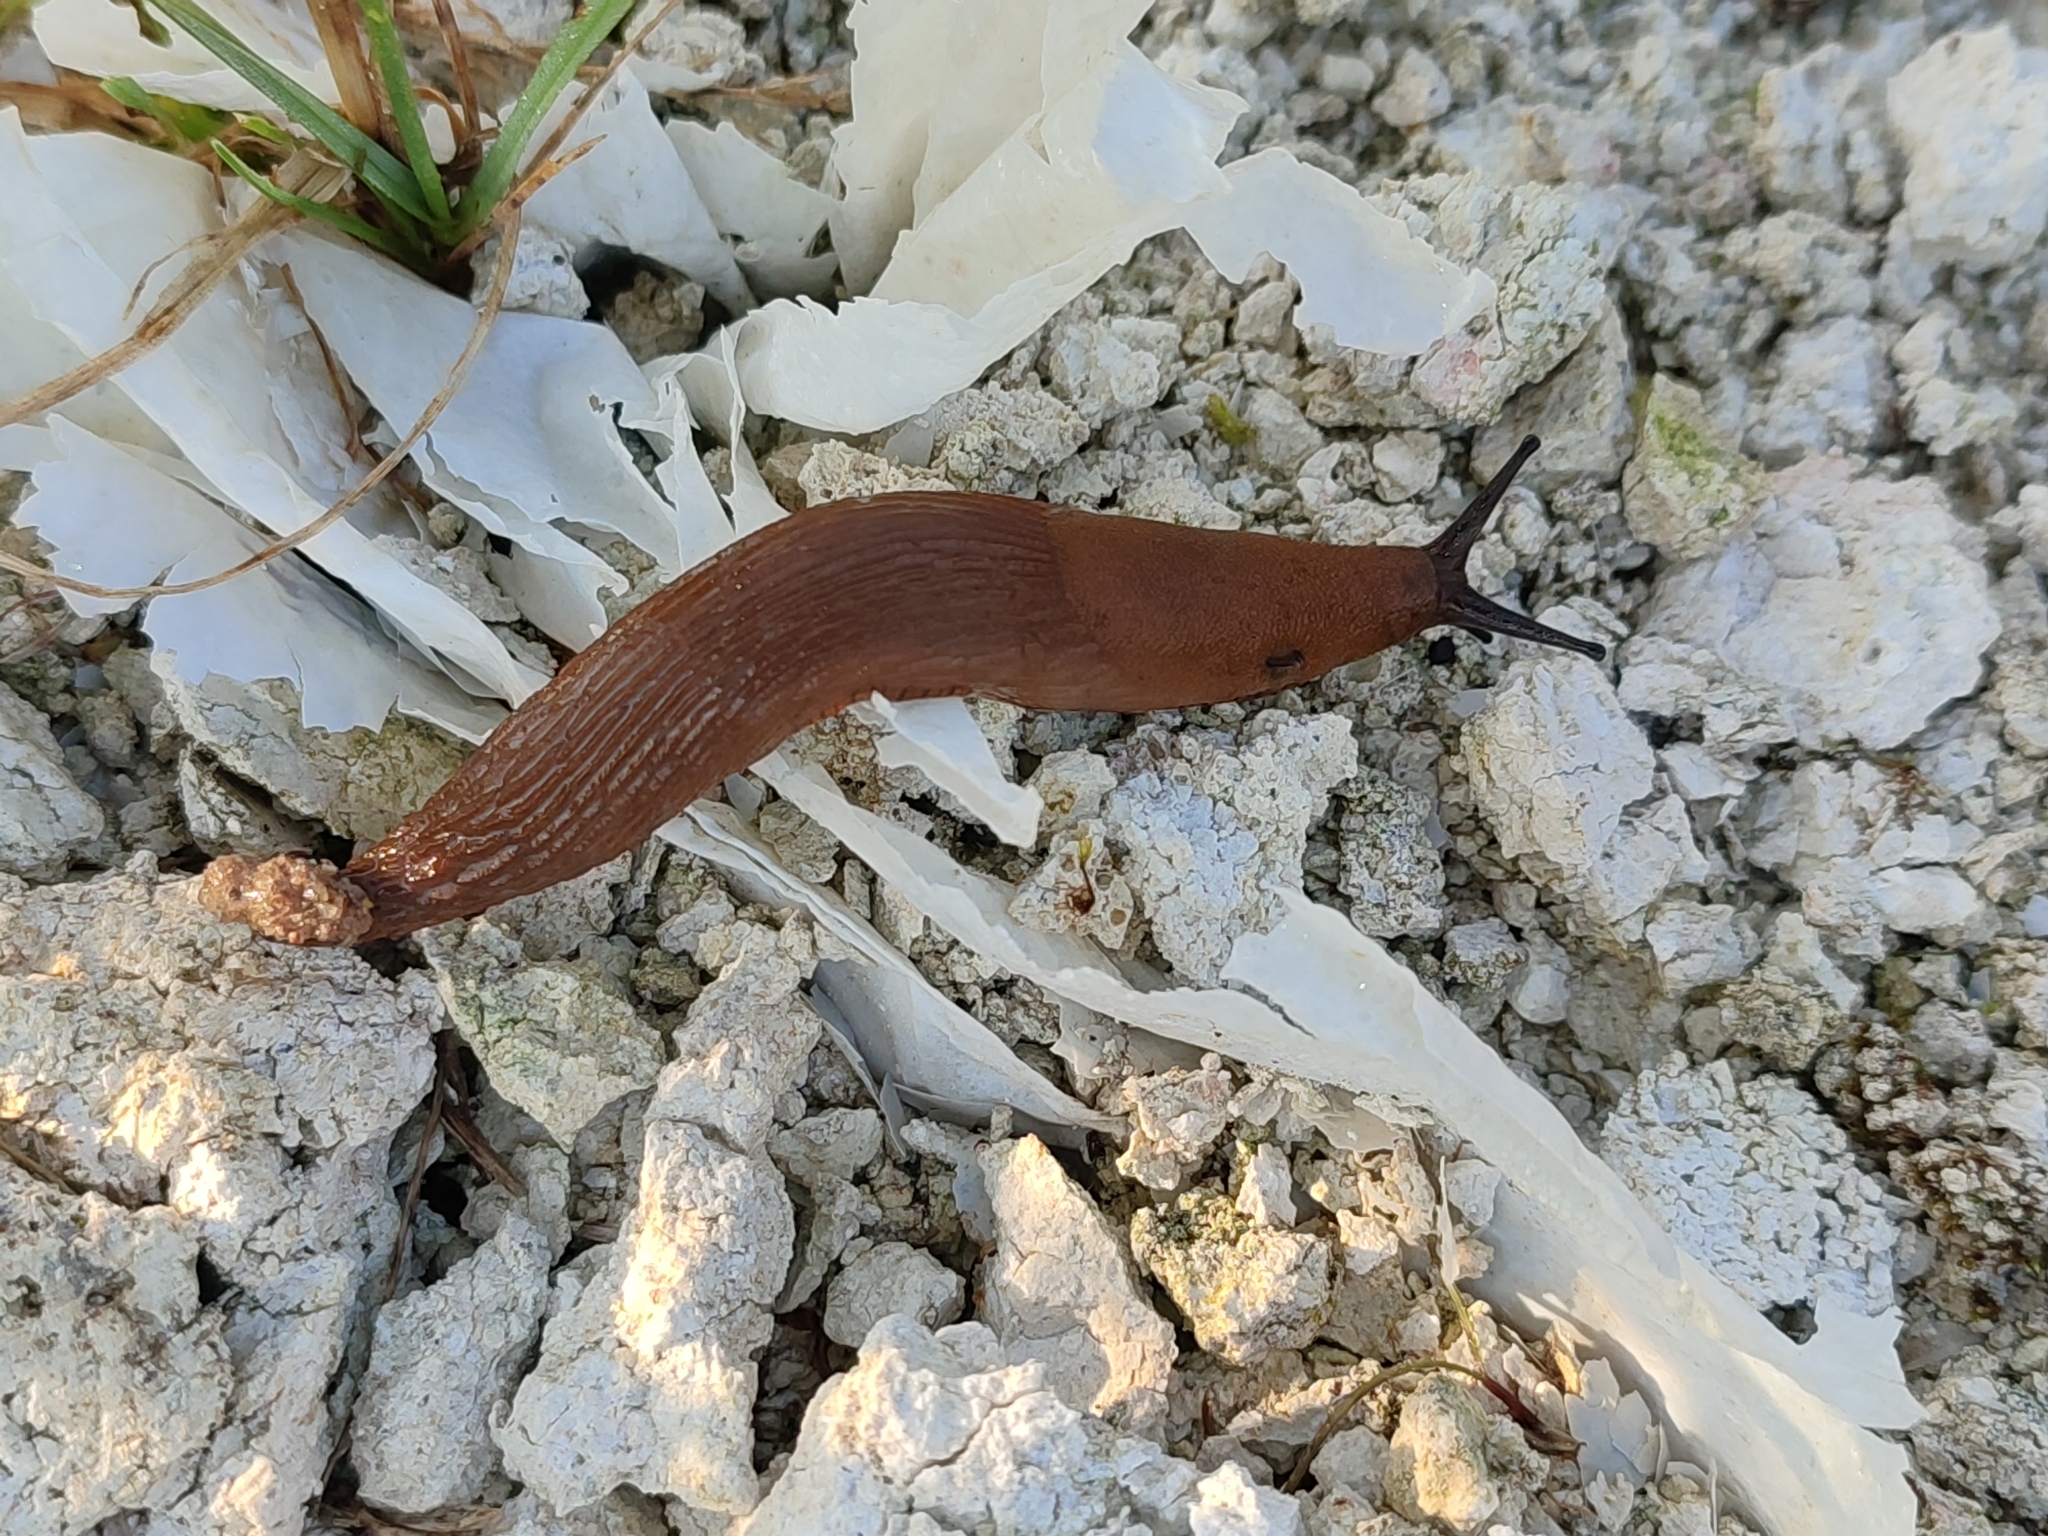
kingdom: Animalia
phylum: Mollusca
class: Gastropoda
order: Stylommatophora
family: Arionidae
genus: Arion
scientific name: Arion vulgaris
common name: Lusitanian slug
